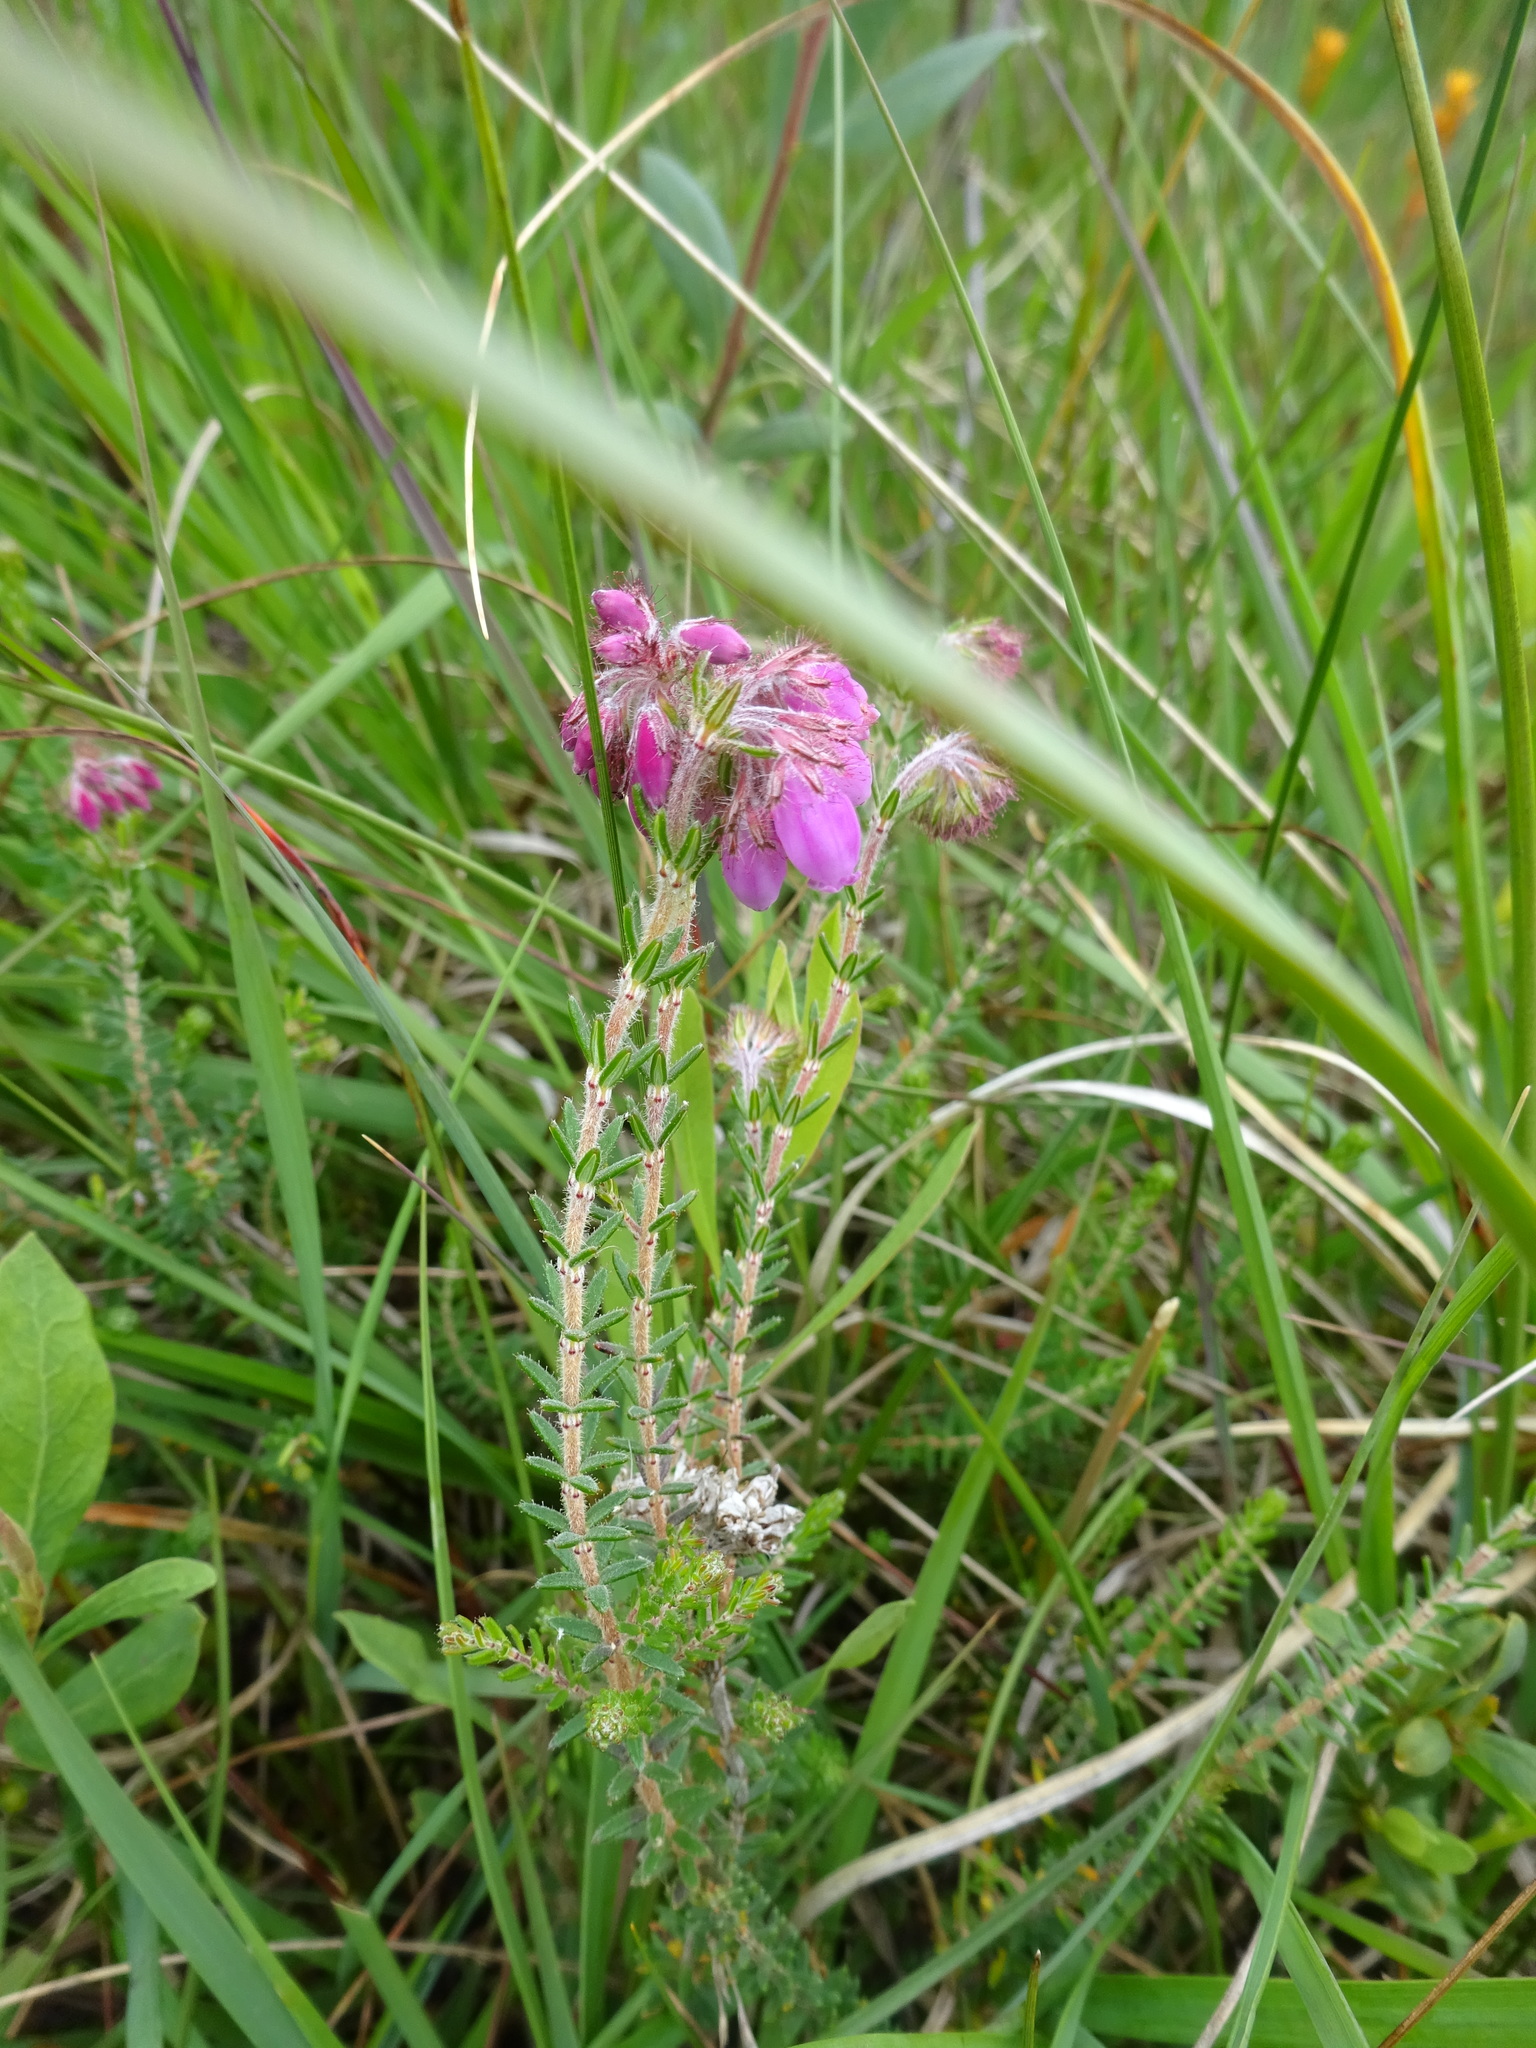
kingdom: Plantae
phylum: Tracheophyta
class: Magnoliopsida
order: Ericales
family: Ericaceae
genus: Erica
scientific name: Erica tetralix
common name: Cross-leaved heath
